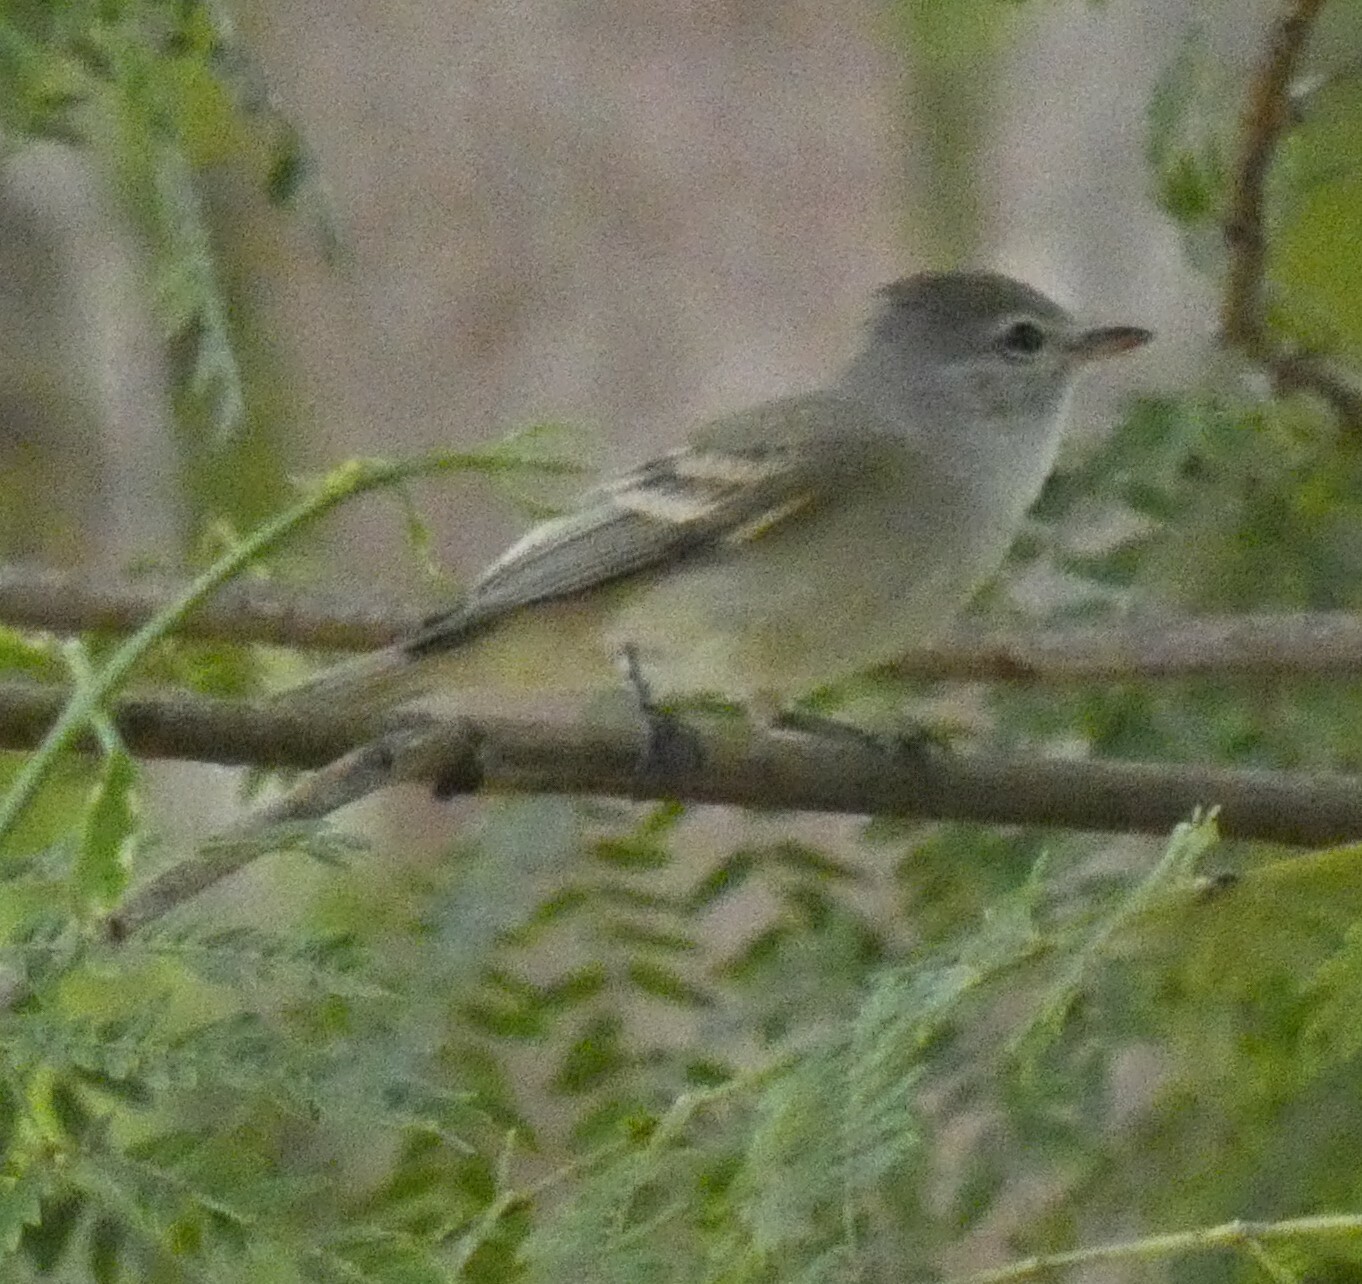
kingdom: Animalia
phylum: Chordata
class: Aves
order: Passeriformes
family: Tyrannidae
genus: Camptostoma
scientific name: Camptostoma obsoletum
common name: Southern beardless-tyrannulet
